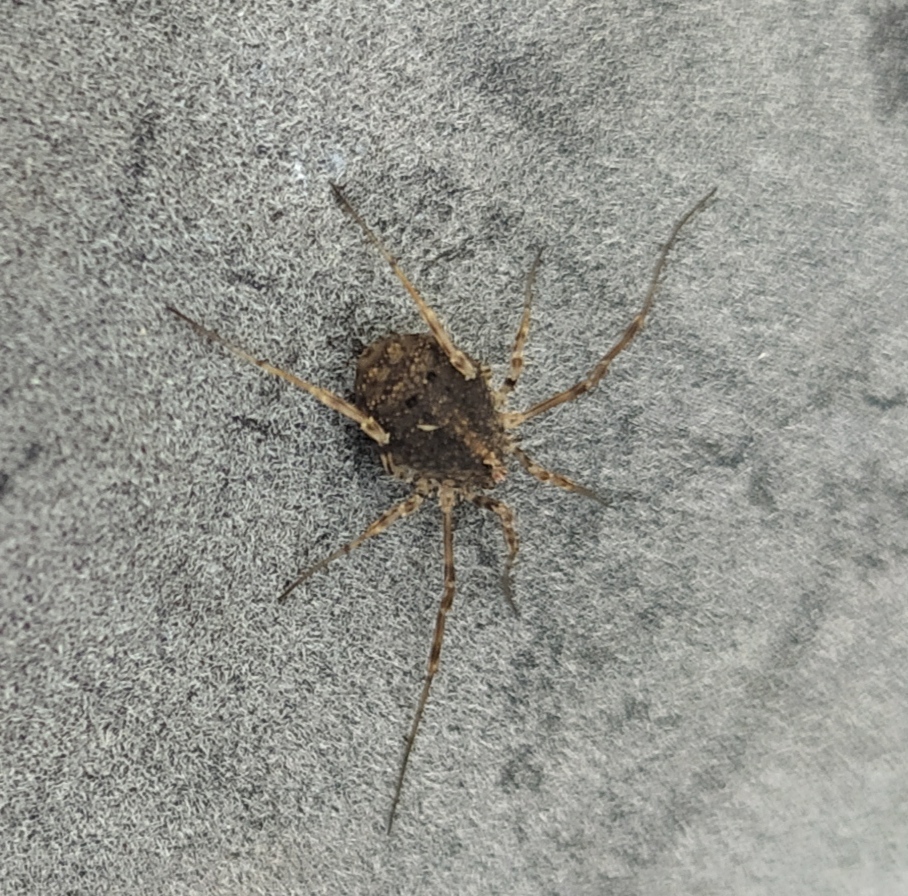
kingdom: Animalia
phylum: Arthropoda
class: Arachnida
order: Opiliones
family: Phalangiidae
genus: Odiellus
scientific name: Odiellus lendlii
